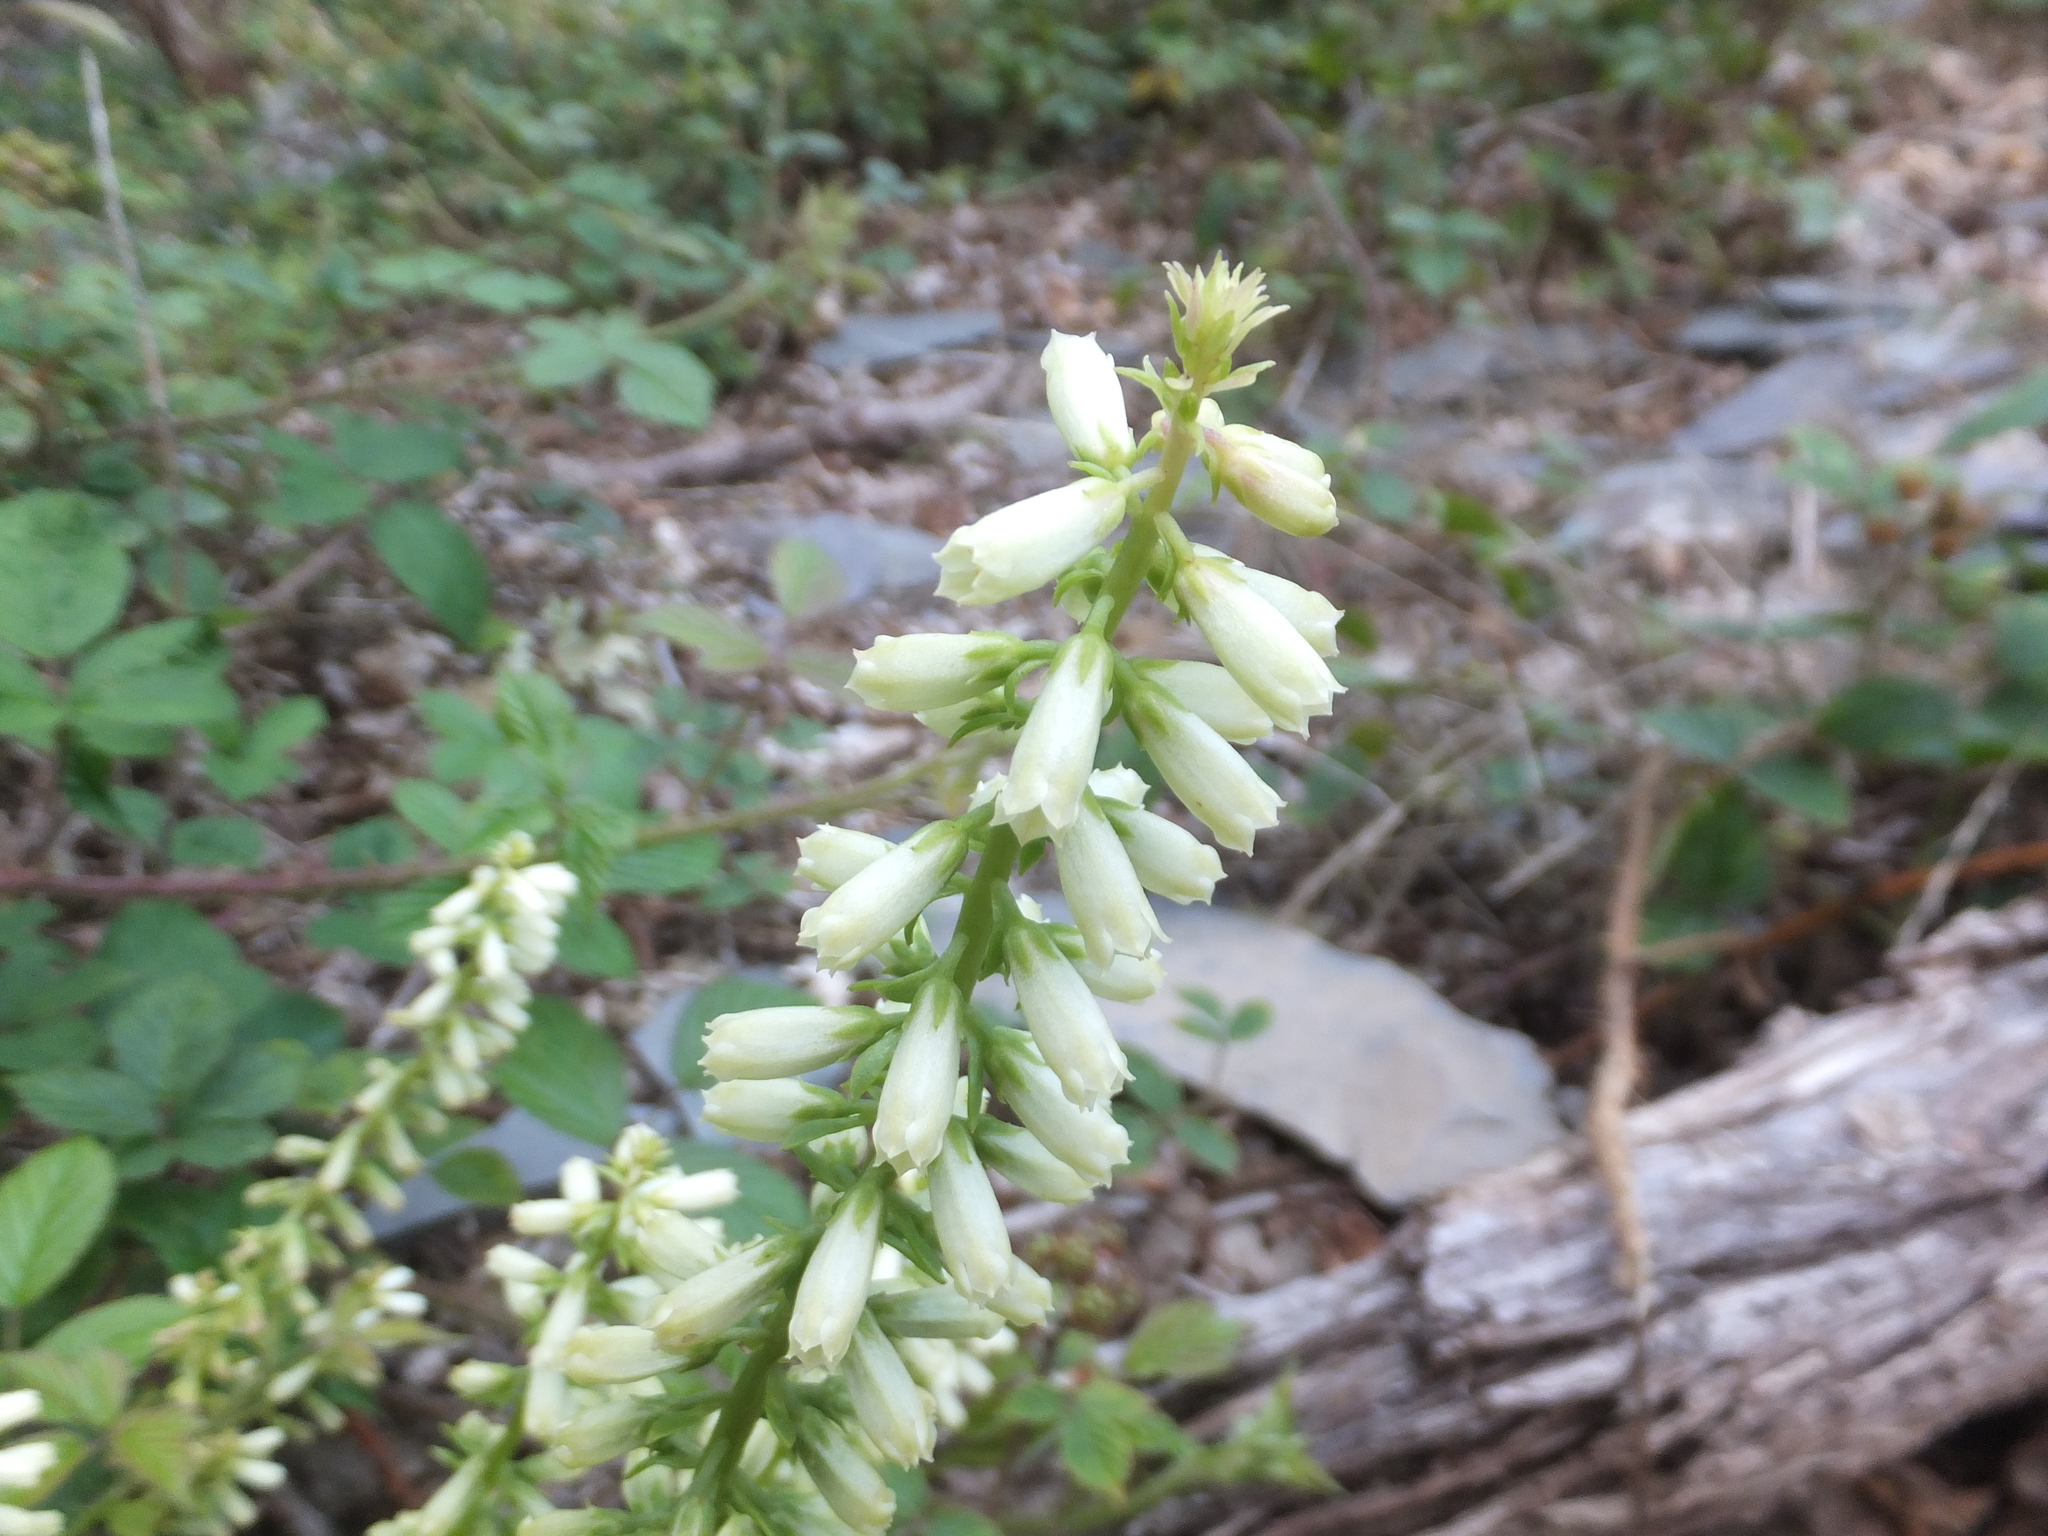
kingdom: Plantae
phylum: Tracheophyta
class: Magnoliopsida
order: Saxifragales
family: Crassulaceae
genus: Umbilicus
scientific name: Umbilicus rupestris
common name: Navelwort
